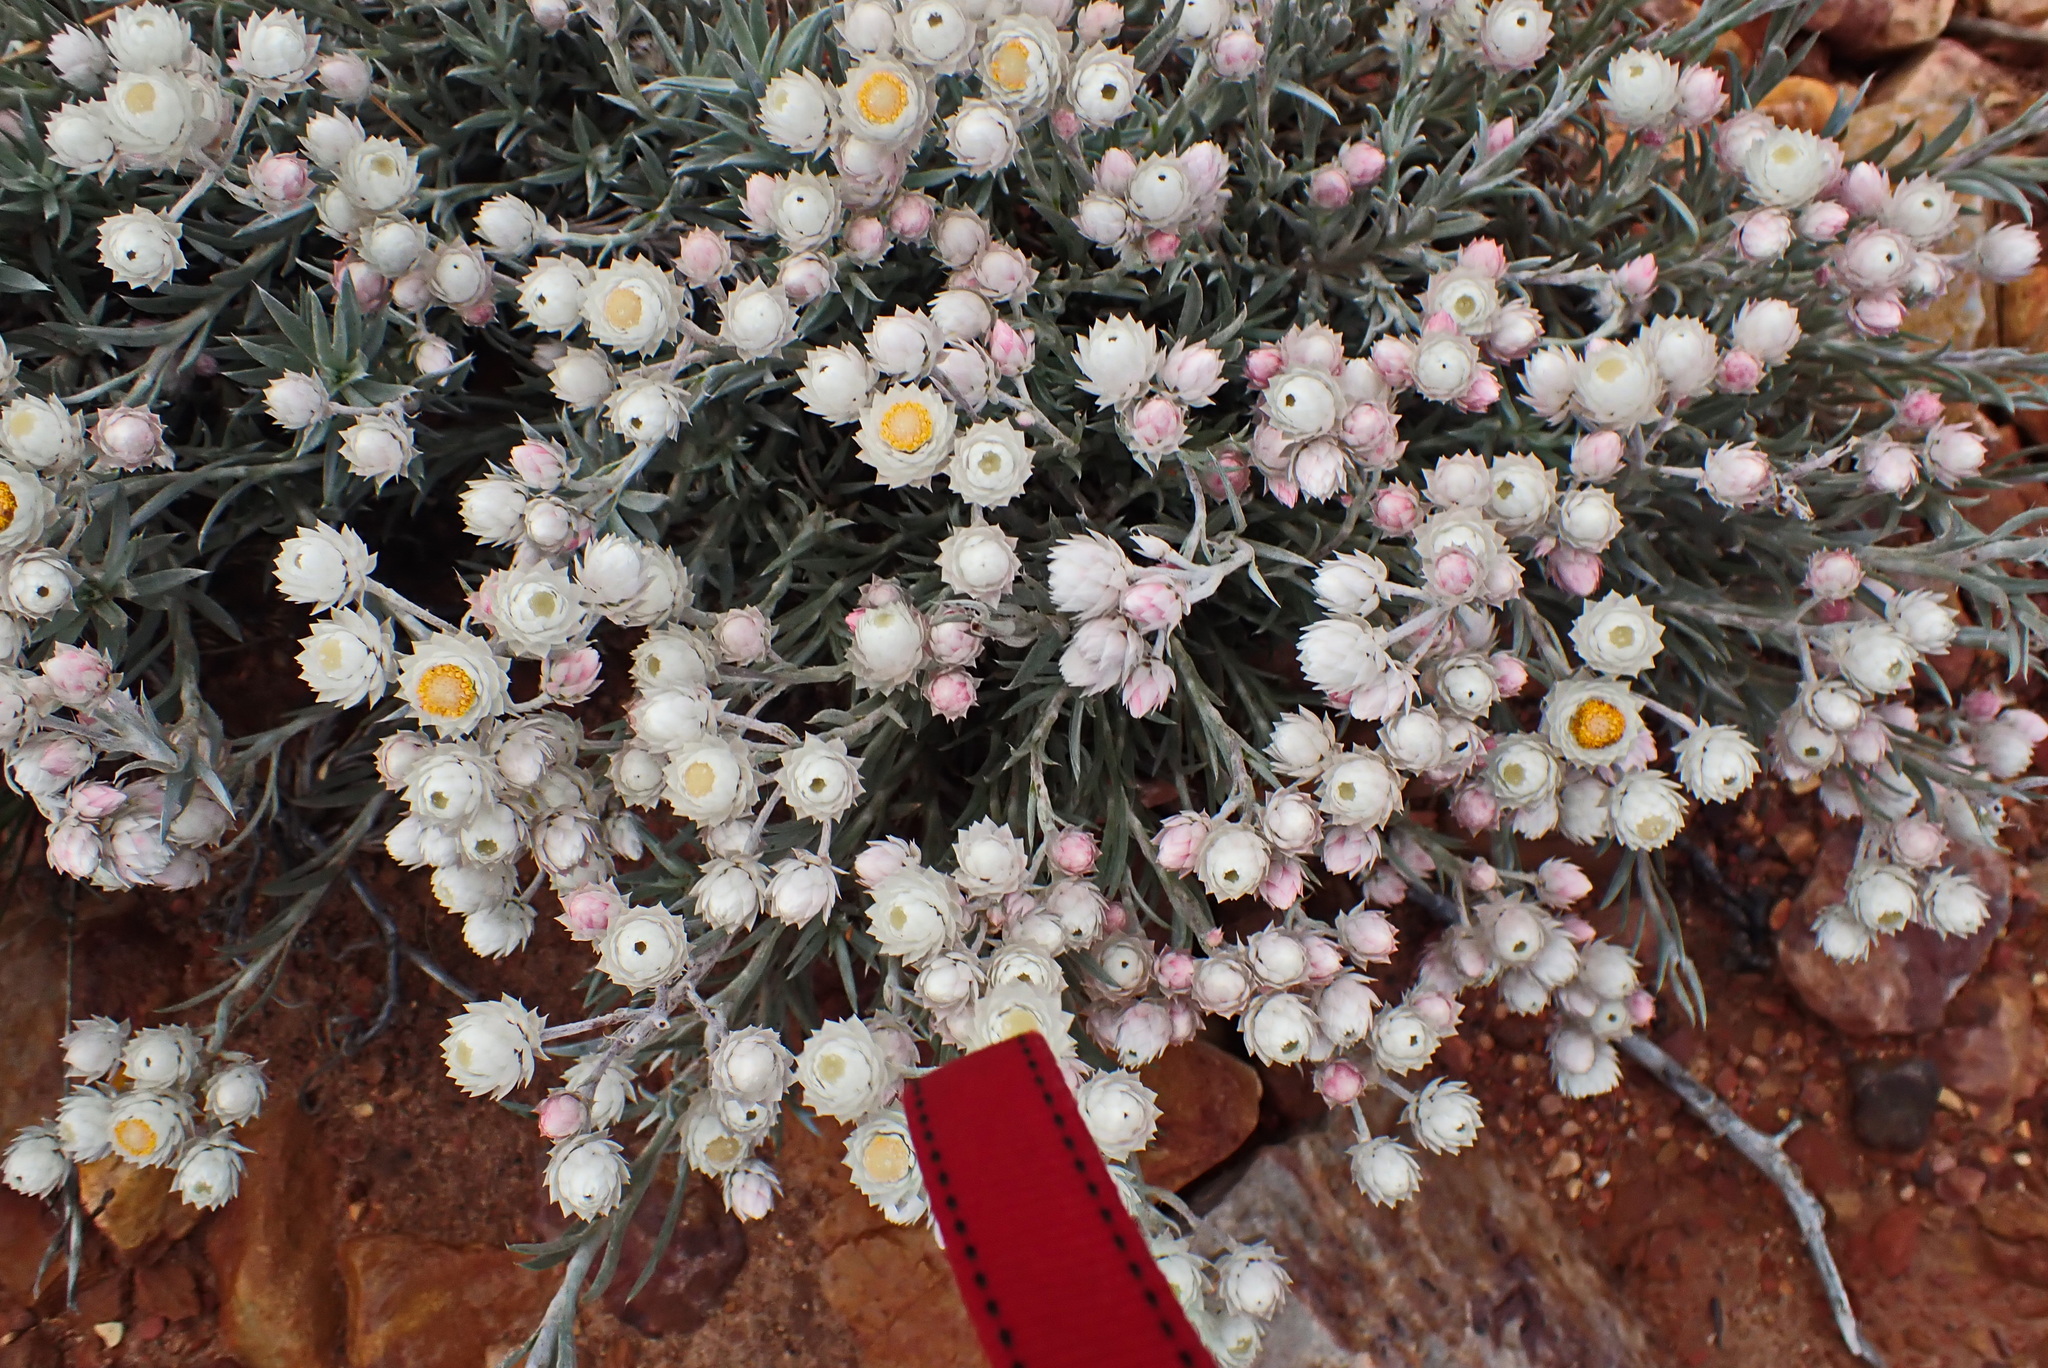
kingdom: Plantae
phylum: Tracheophyta
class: Magnoliopsida
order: Asterales
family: Asteraceae
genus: Achyranthemum
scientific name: Achyranthemum paniculatum
